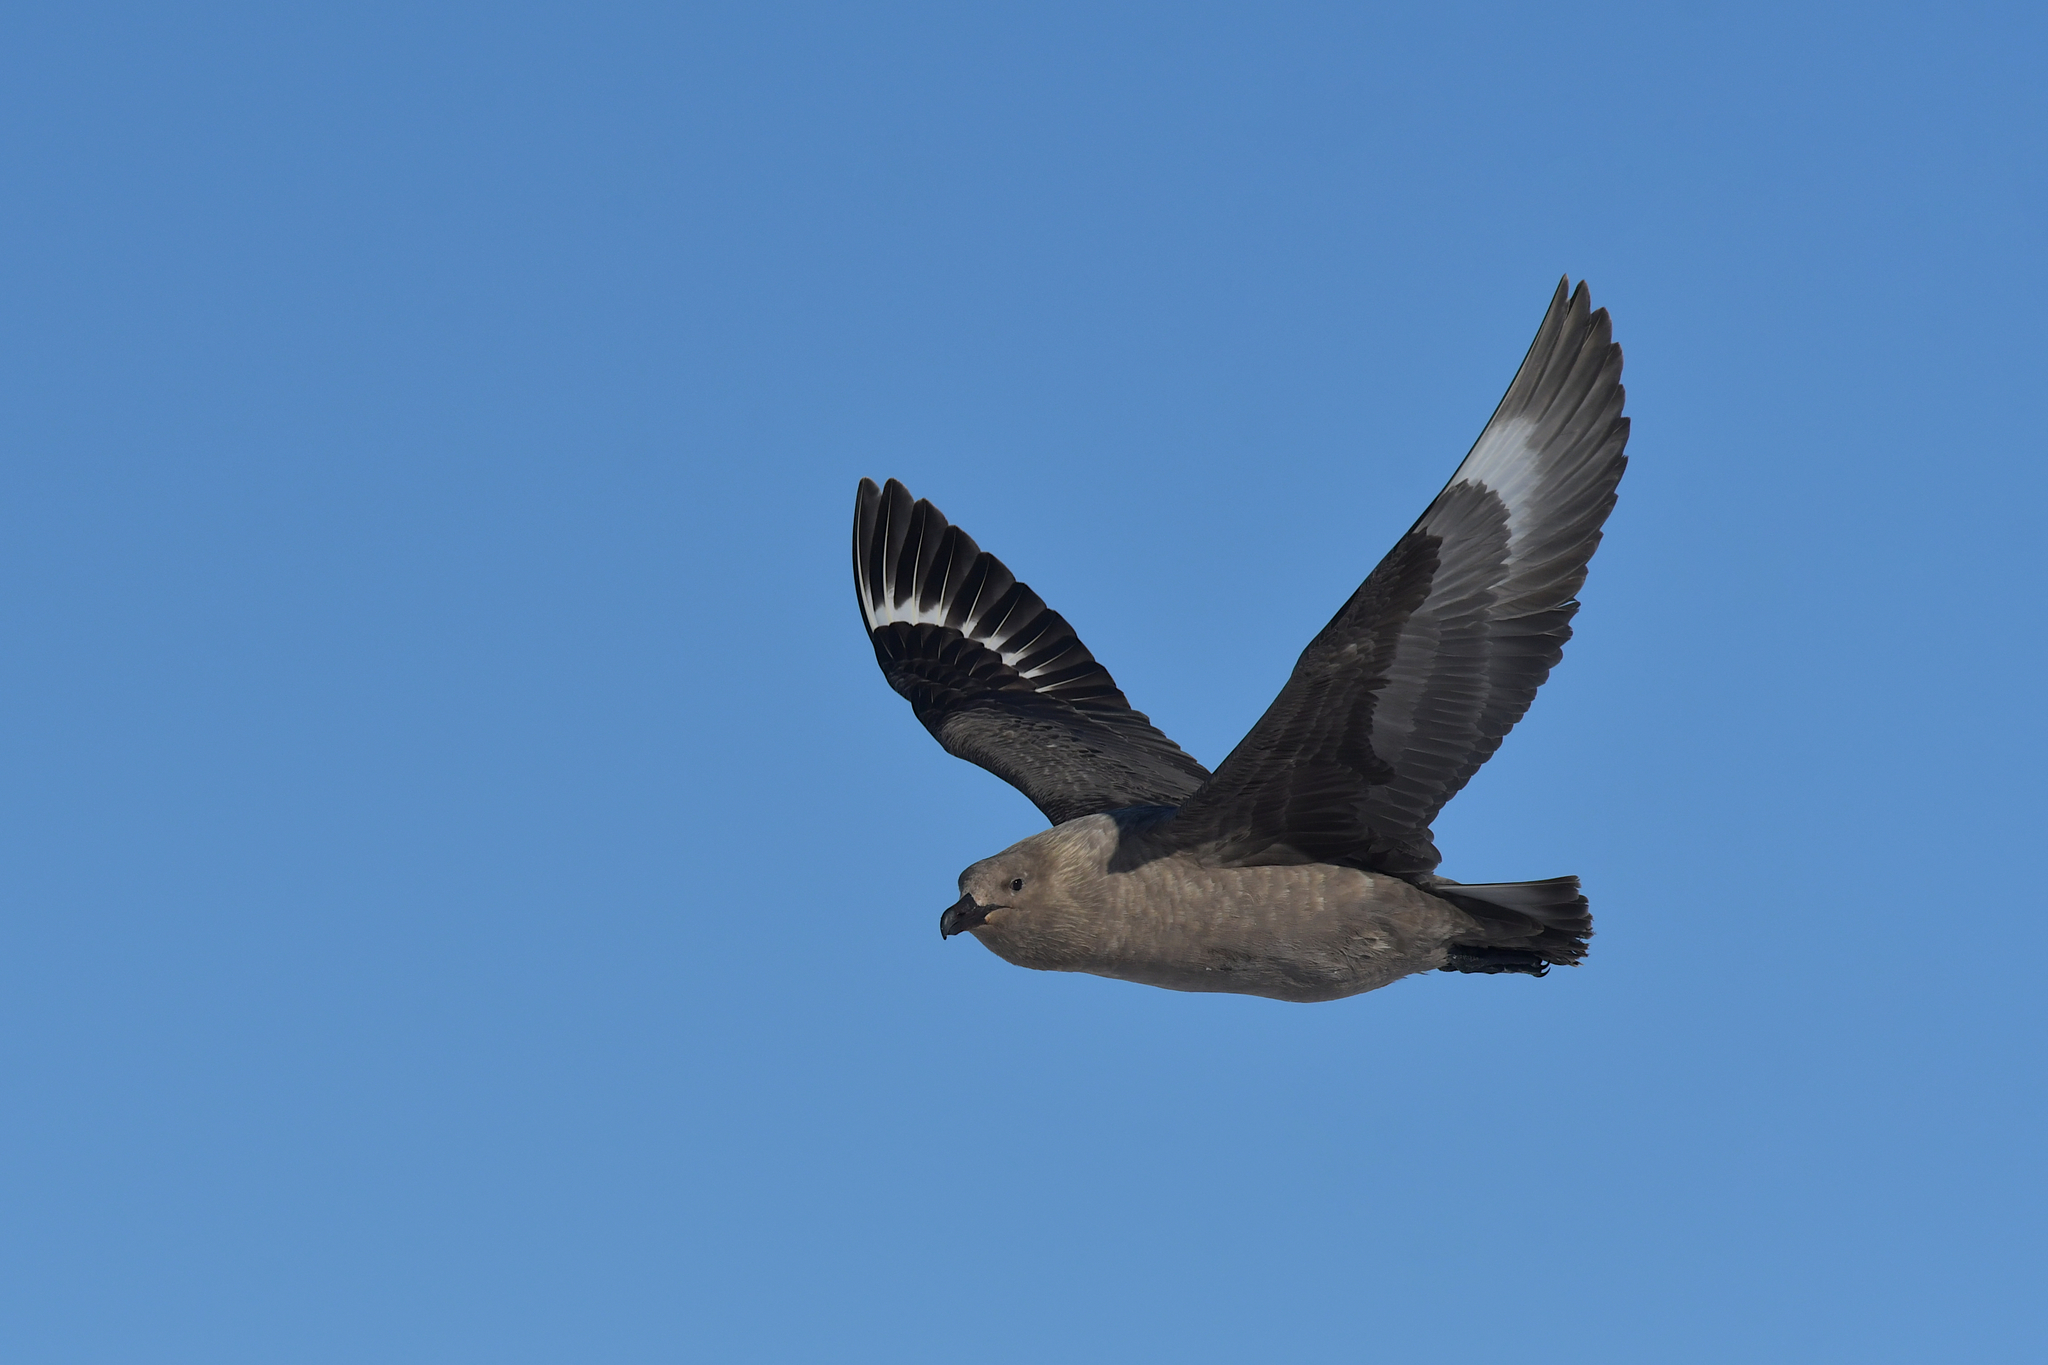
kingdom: Animalia
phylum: Chordata
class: Aves
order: Charadriiformes
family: Stercorariidae
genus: Stercorarius
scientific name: Stercorarius maccormicki
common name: South polar skua
